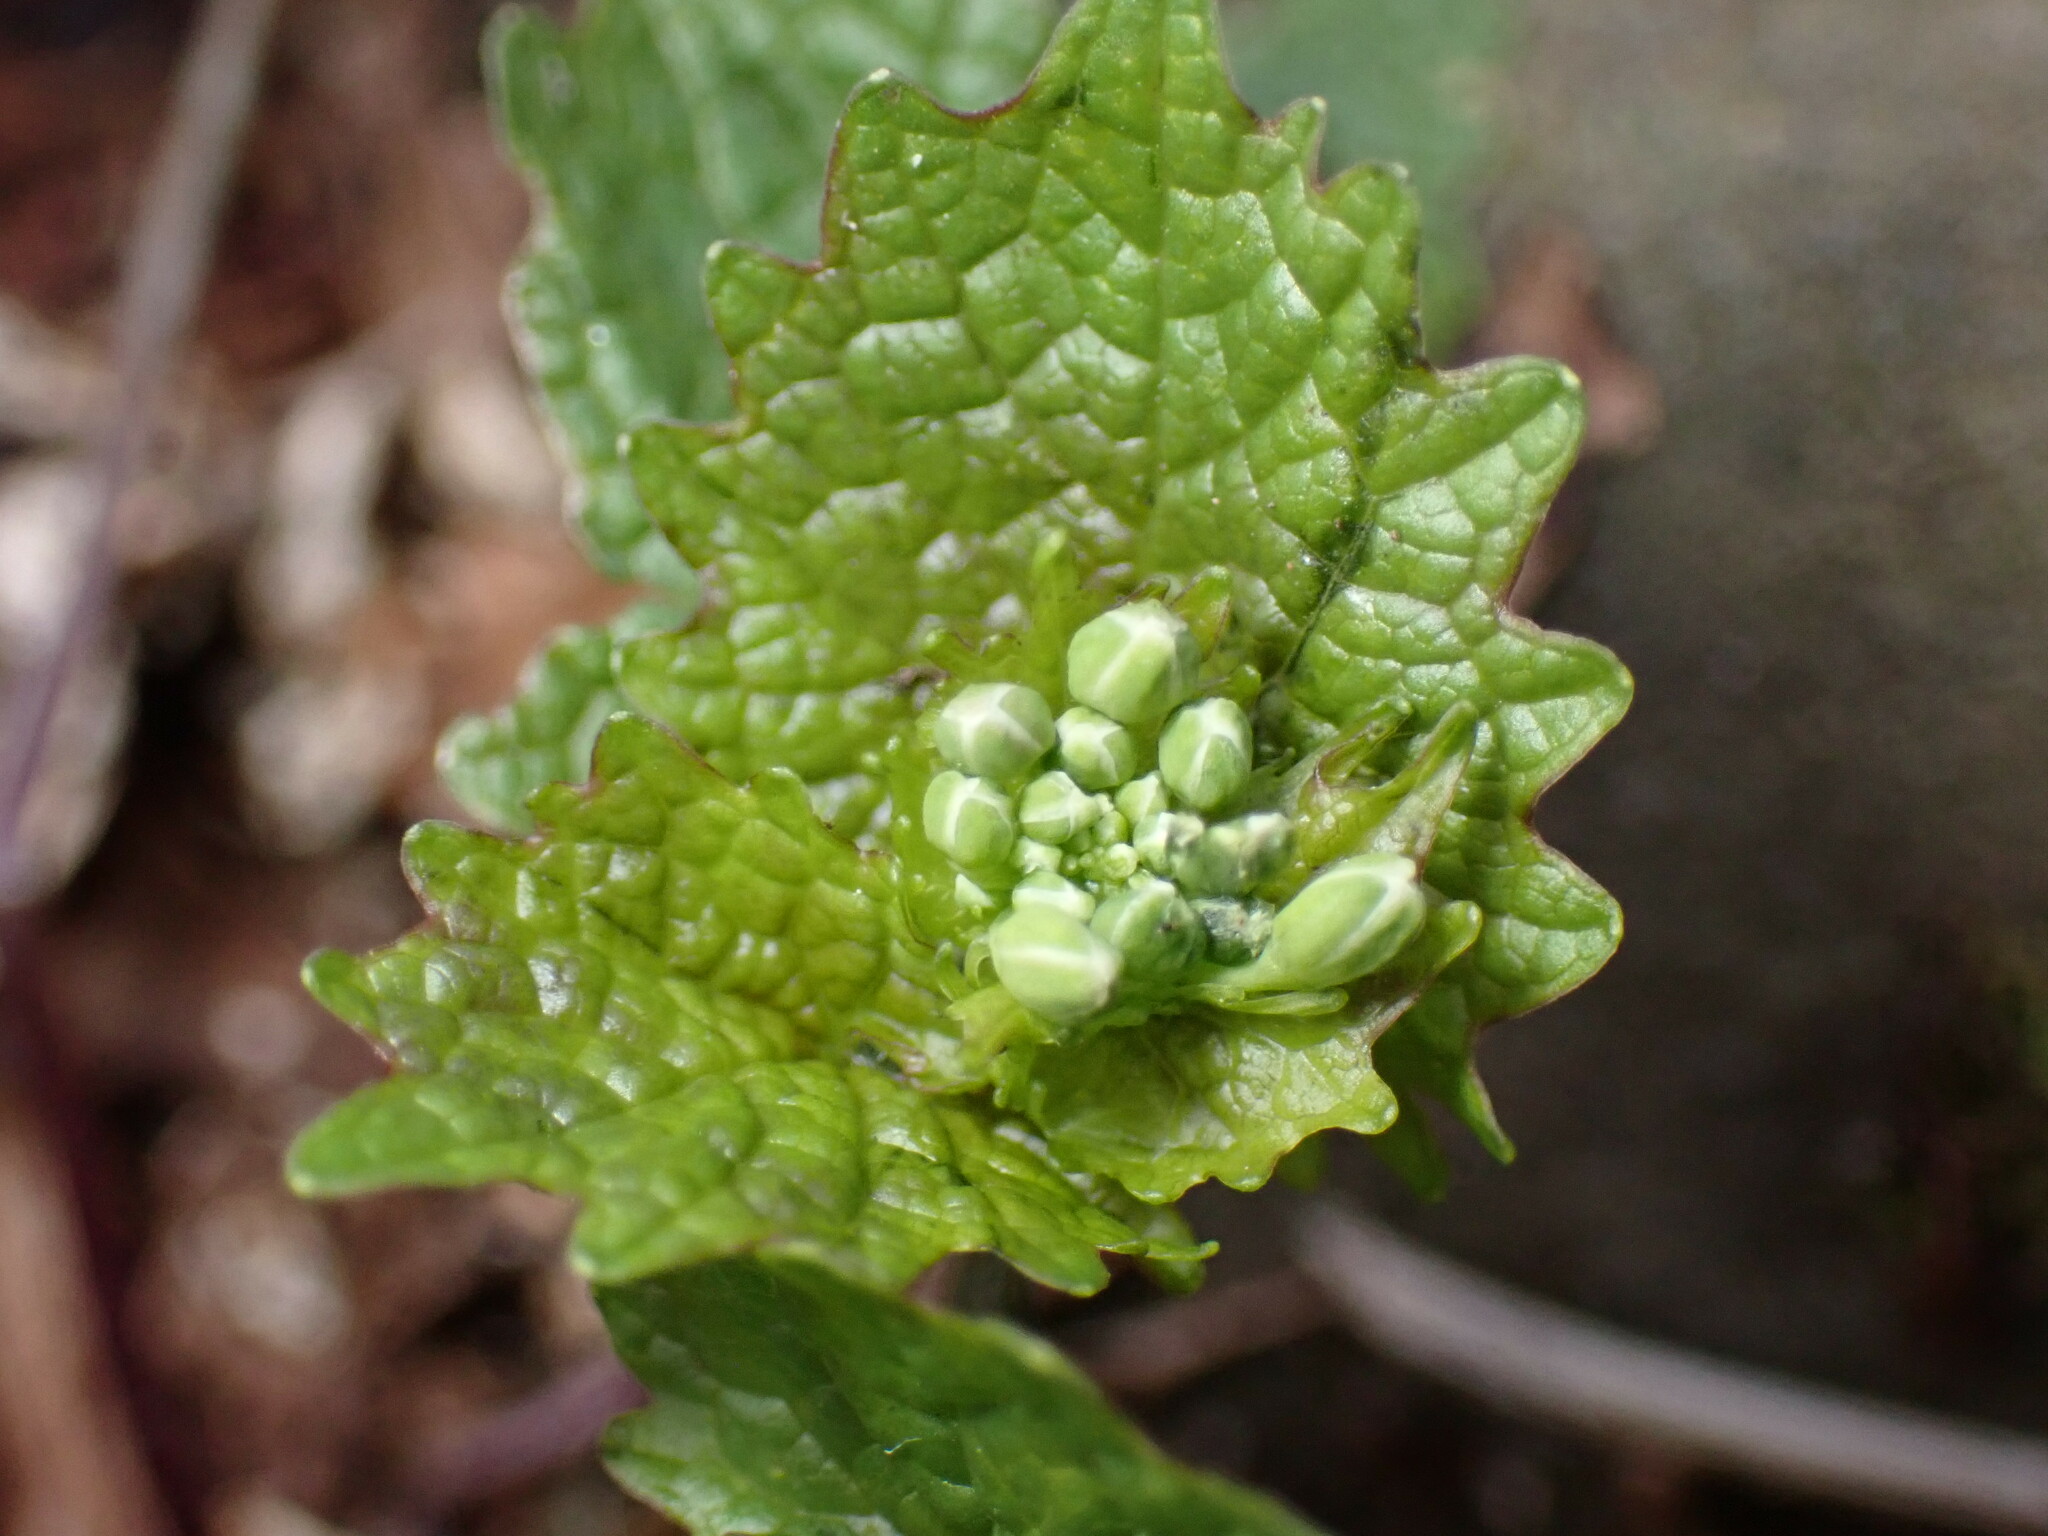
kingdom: Plantae
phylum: Tracheophyta
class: Magnoliopsida
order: Brassicales
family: Brassicaceae
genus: Alliaria
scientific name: Alliaria petiolata
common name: Garlic mustard
